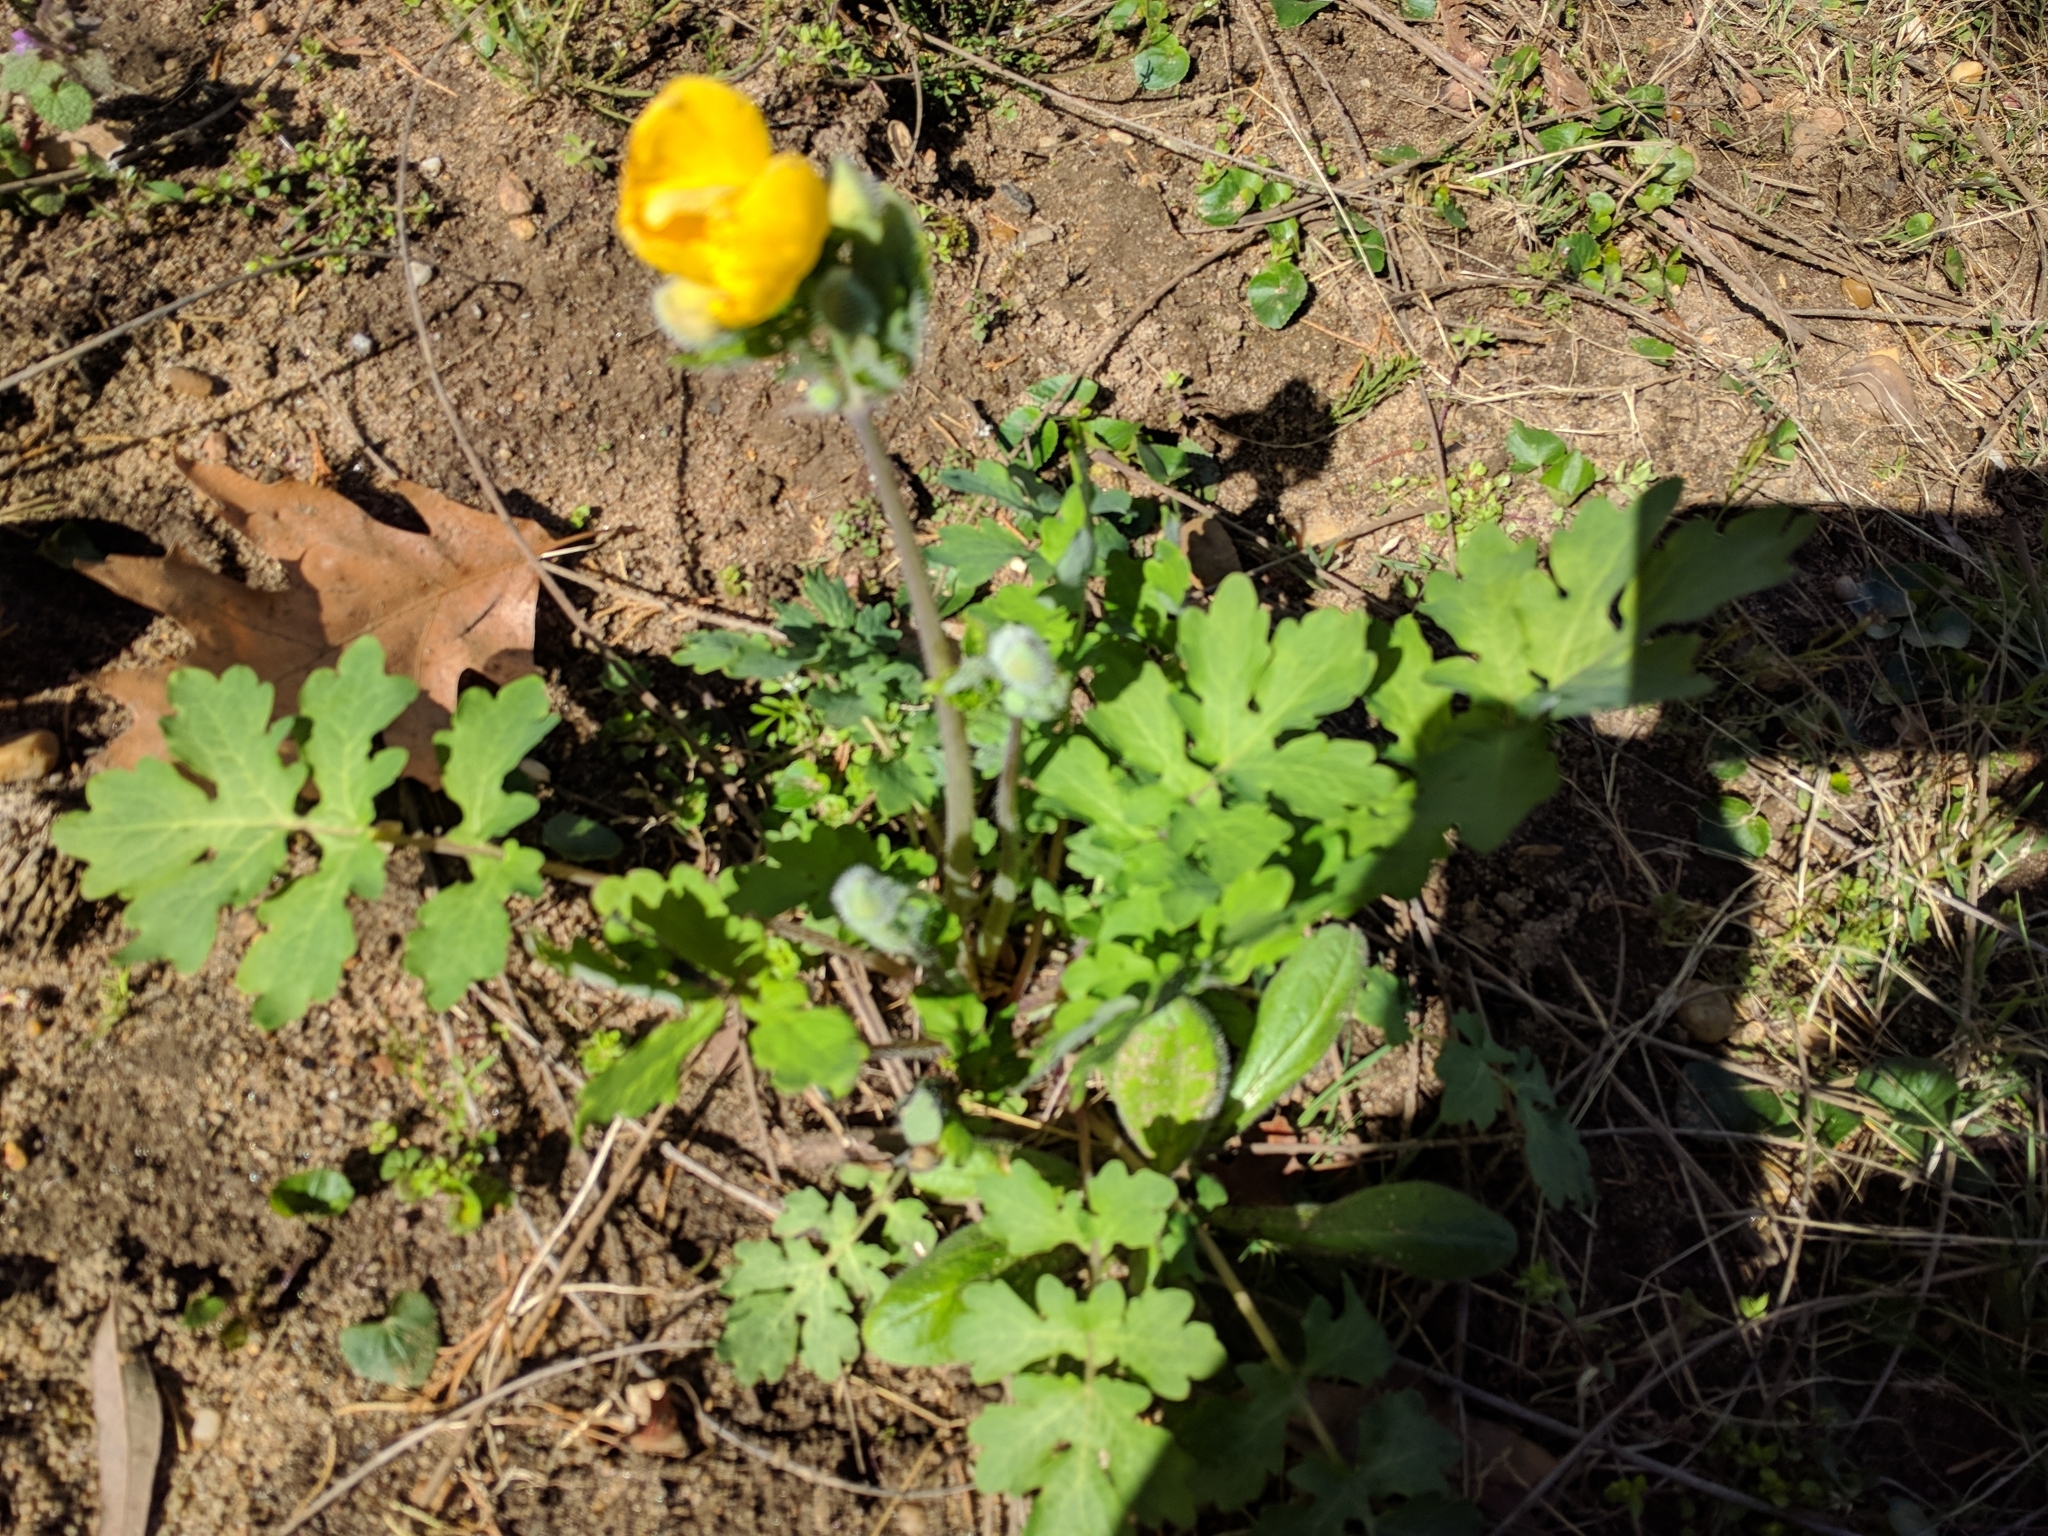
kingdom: Plantae
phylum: Tracheophyta
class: Magnoliopsida
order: Ranunculales
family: Papaveraceae
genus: Stylophorum
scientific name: Stylophorum diphyllum
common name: Celandine poppy
